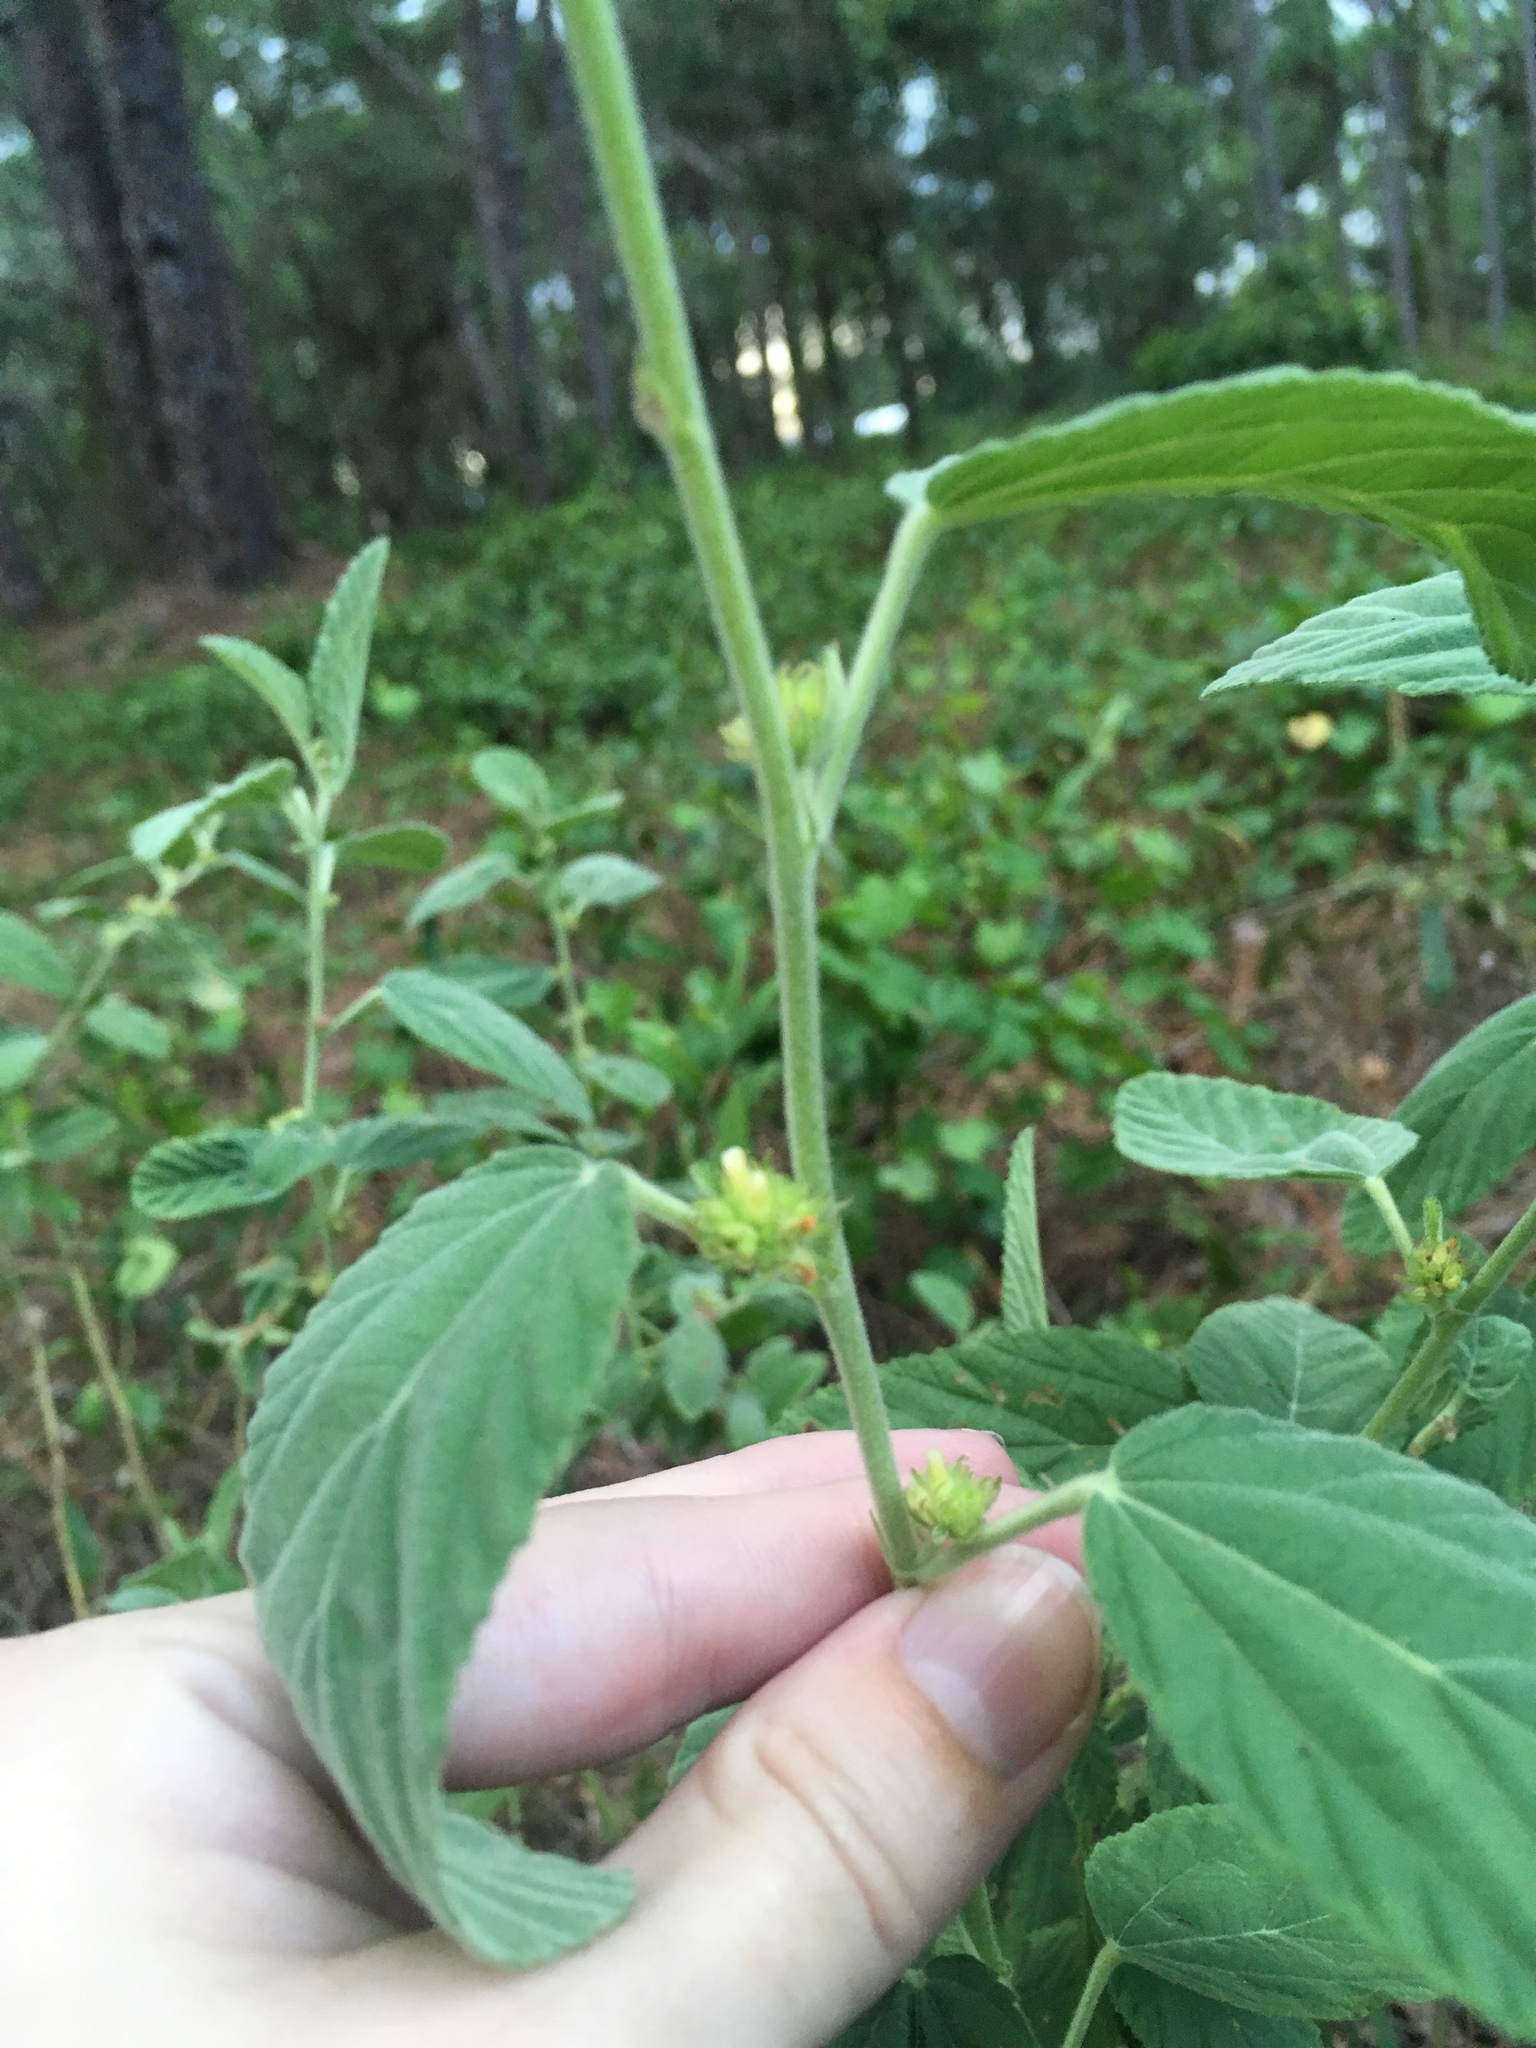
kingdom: Plantae
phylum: Tracheophyta
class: Magnoliopsida
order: Malvales
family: Malvaceae
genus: Waltheria
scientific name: Waltheria indica
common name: Leather-coat
